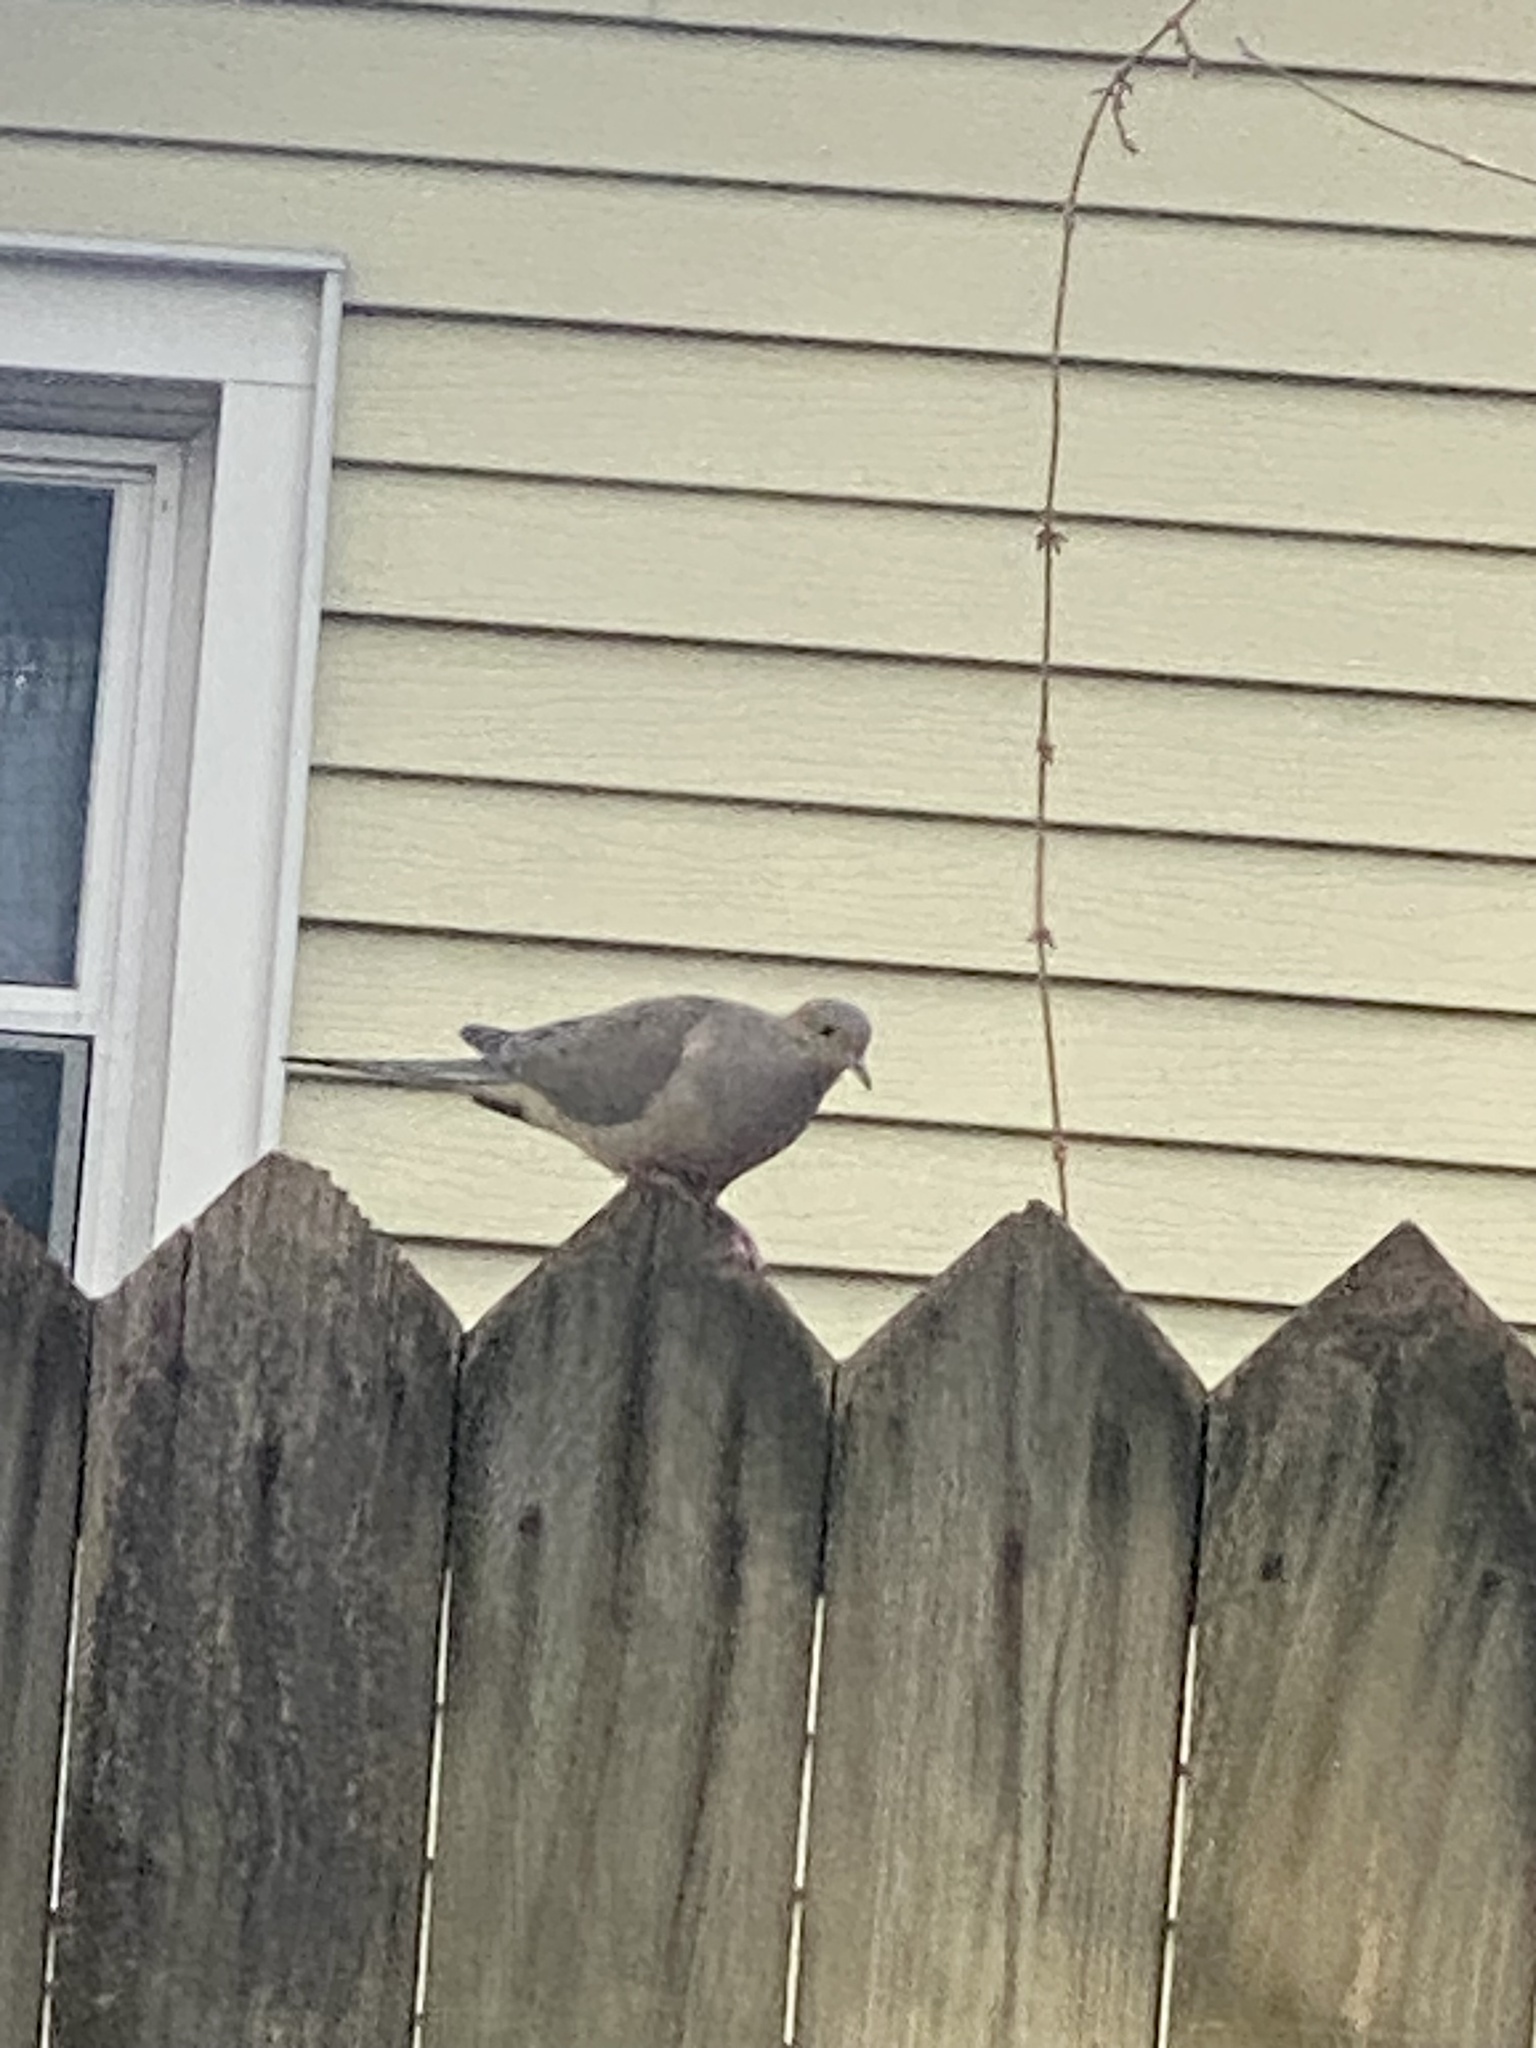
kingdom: Animalia
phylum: Chordata
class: Aves
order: Columbiformes
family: Columbidae
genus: Zenaida
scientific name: Zenaida macroura
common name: Mourning dove
